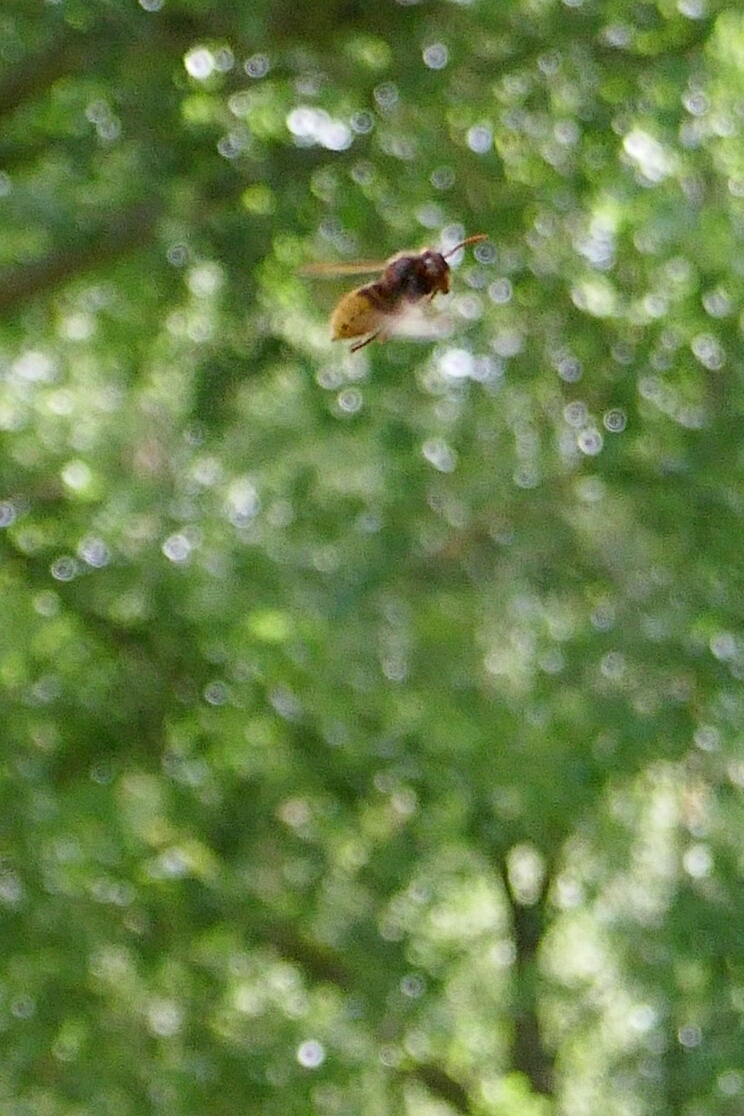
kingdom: Animalia
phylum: Arthropoda
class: Insecta
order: Hymenoptera
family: Vespidae
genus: Vespa
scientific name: Vespa crabro
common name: Hornet
